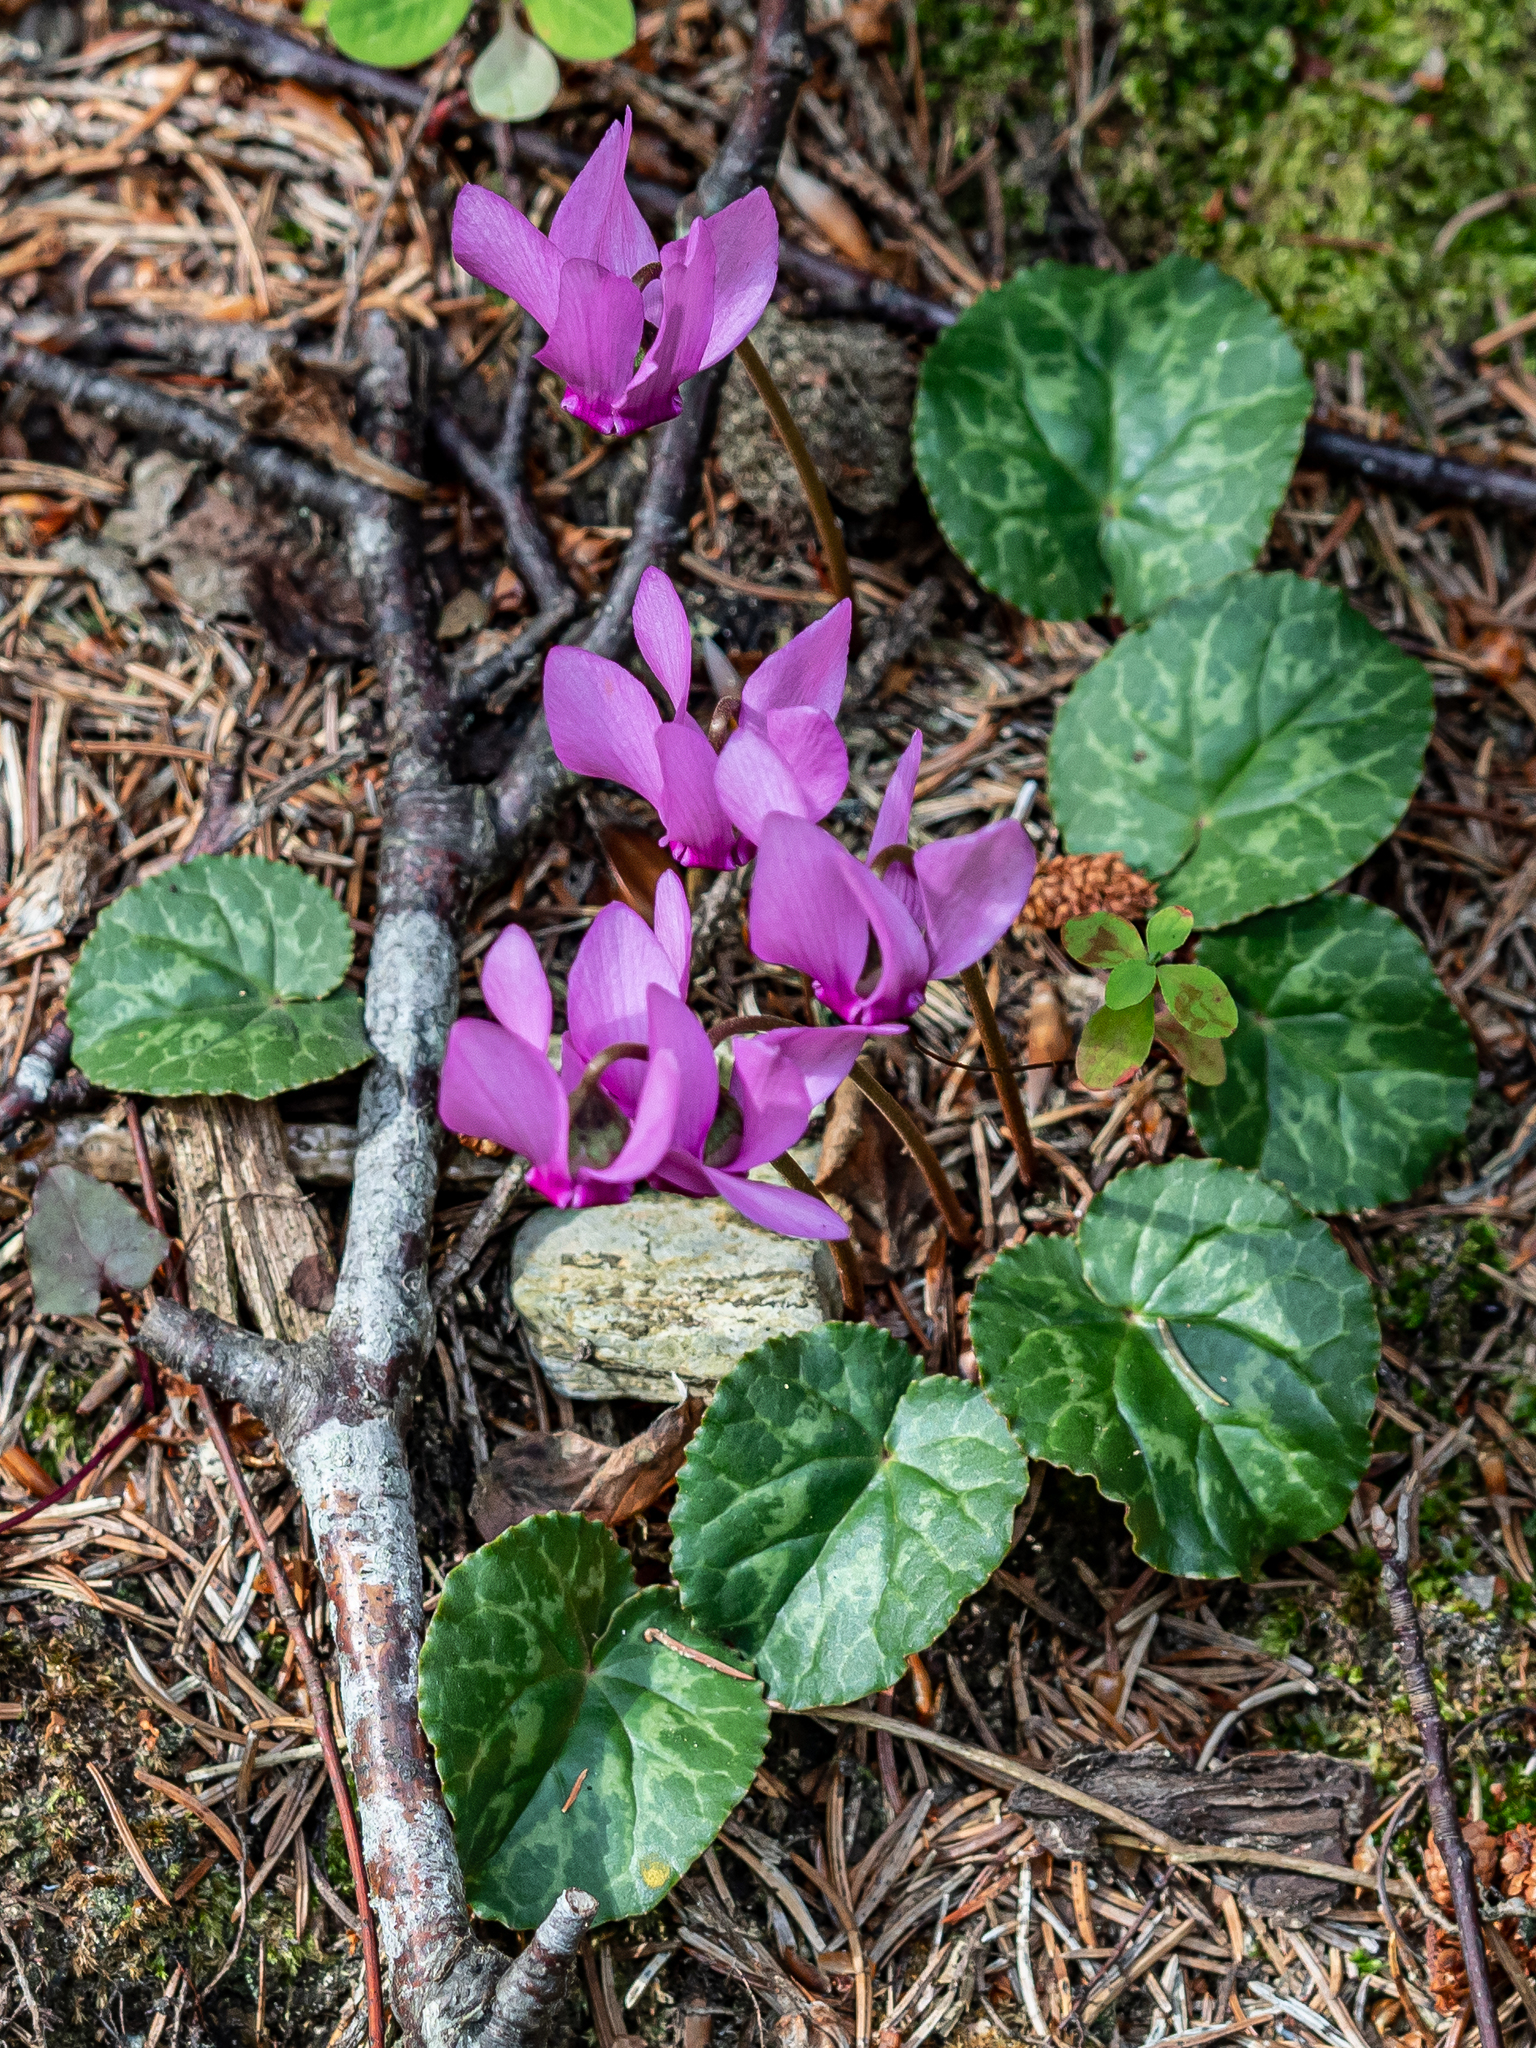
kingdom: Plantae
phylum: Tracheophyta
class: Magnoliopsida
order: Ericales
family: Primulaceae
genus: Cyclamen
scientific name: Cyclamen purpurascens
